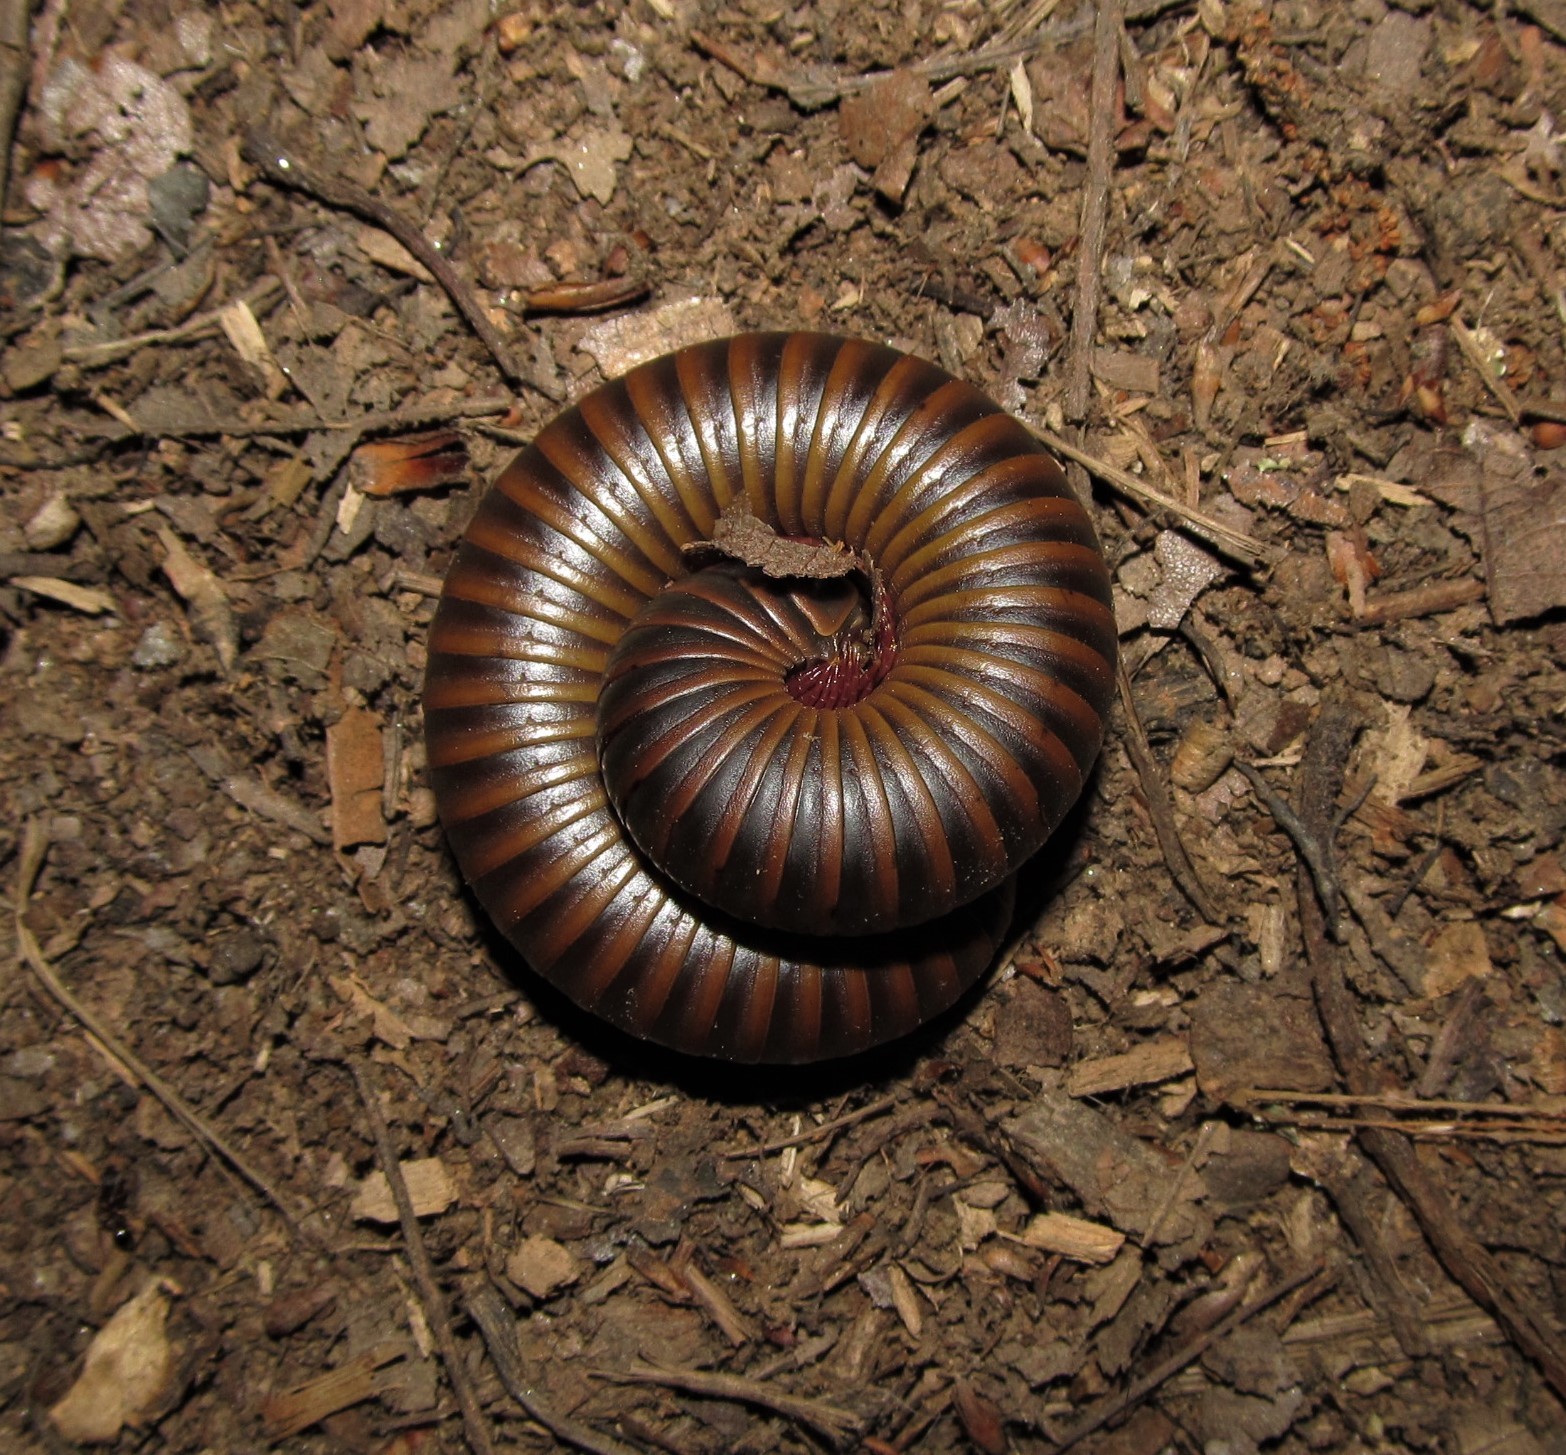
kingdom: Animalia
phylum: Arthropoda
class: Diplopoda
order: Spirobolida
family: Spirobolidae
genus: Narceus
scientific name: Narceus
